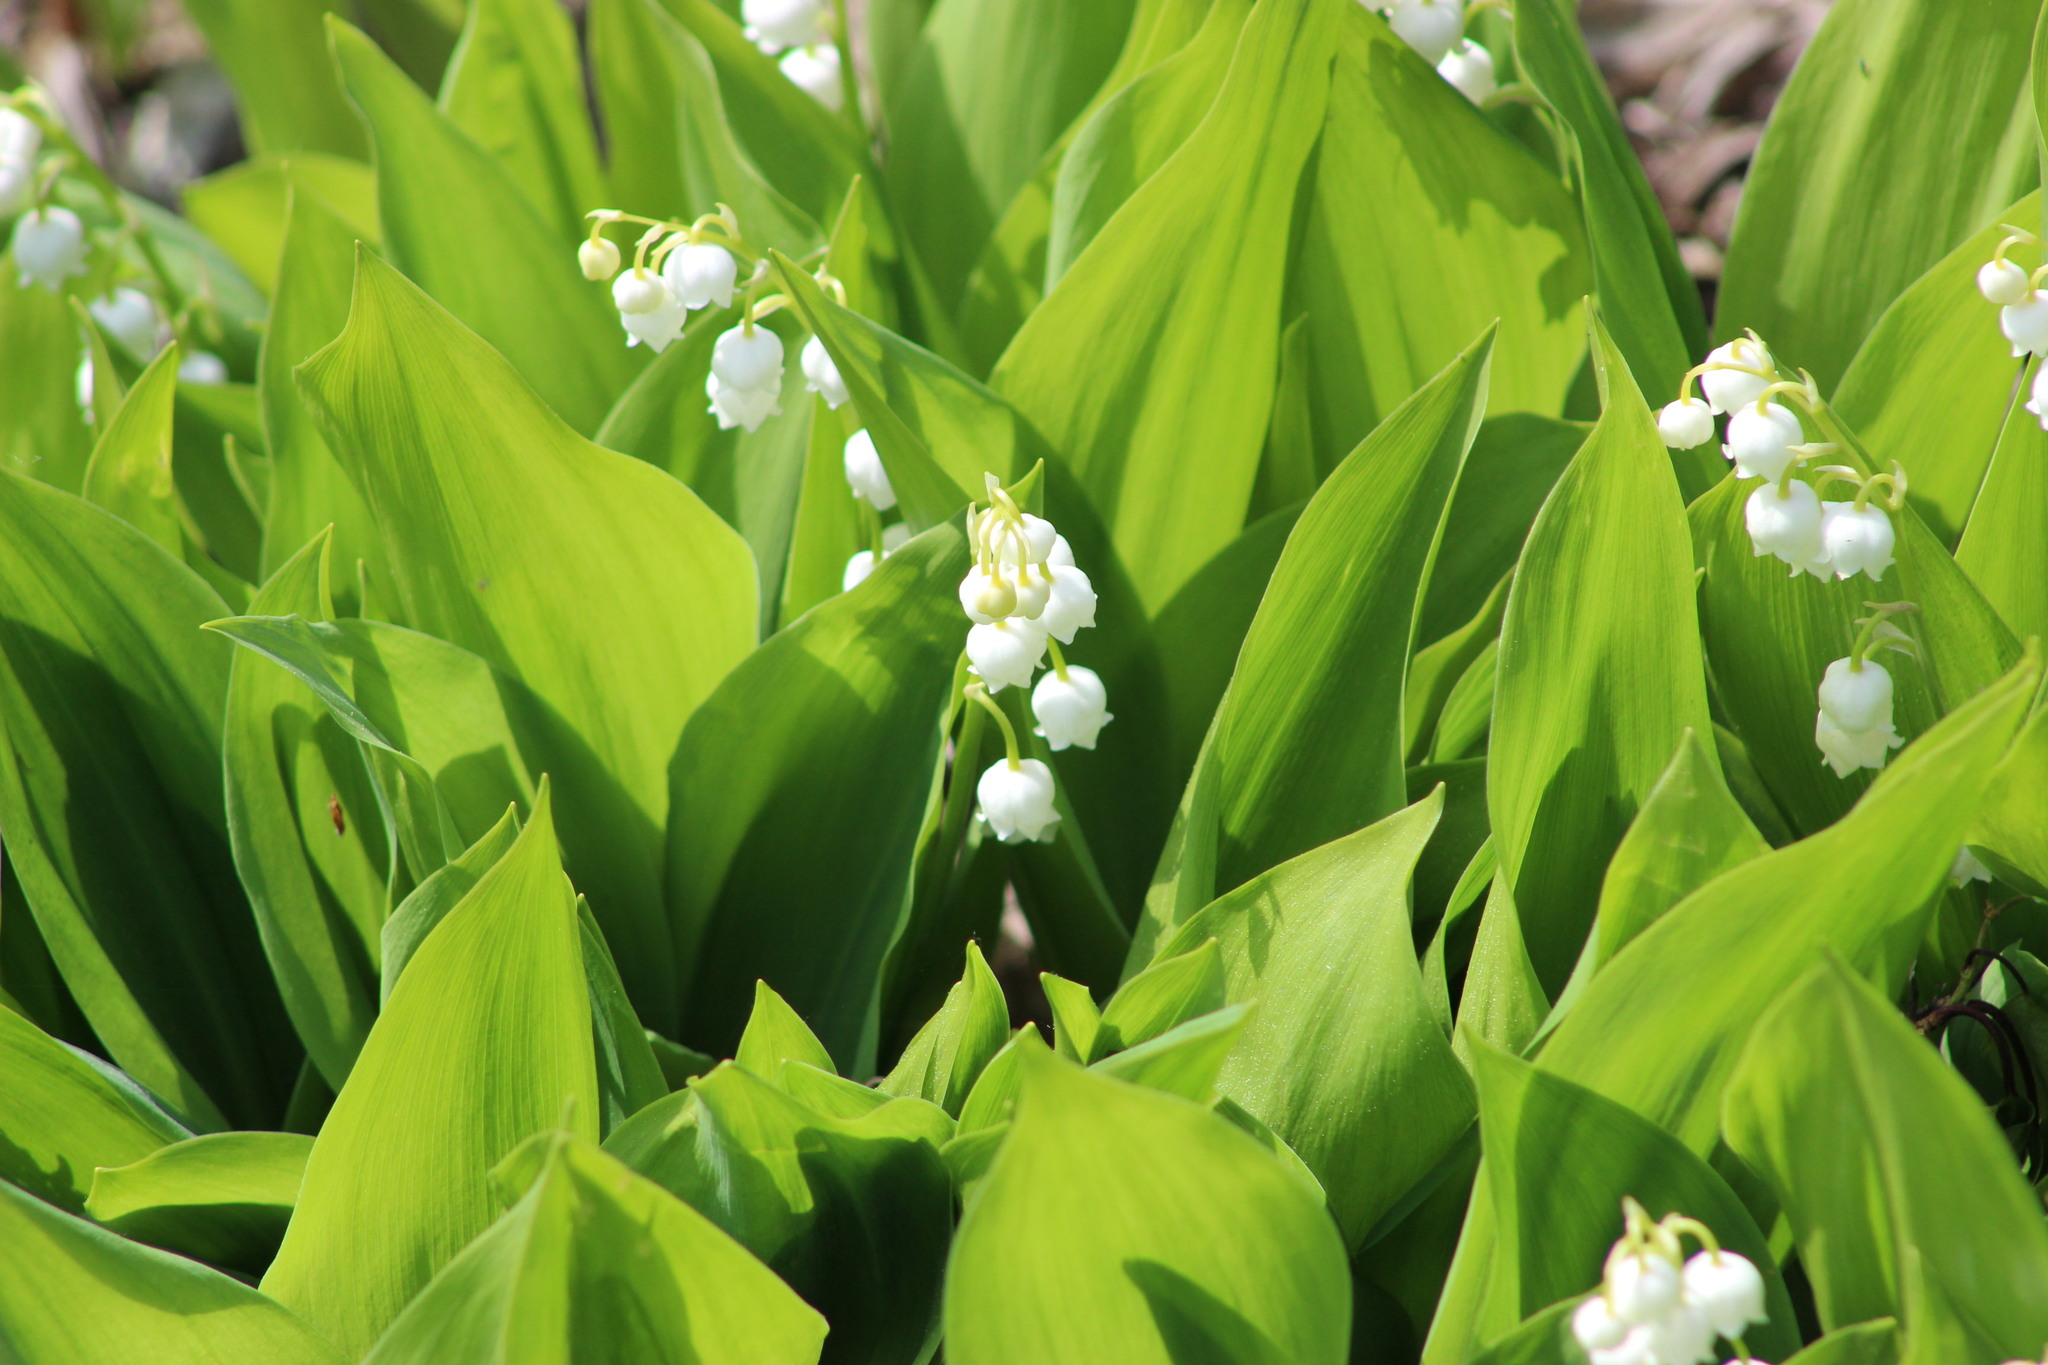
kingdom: Plantae
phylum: Tracheophyta
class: Liliopsida
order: Asparagales
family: Asparagaceae
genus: Convallaria
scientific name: Convallaria majalis
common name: Lily-of-the-valley
